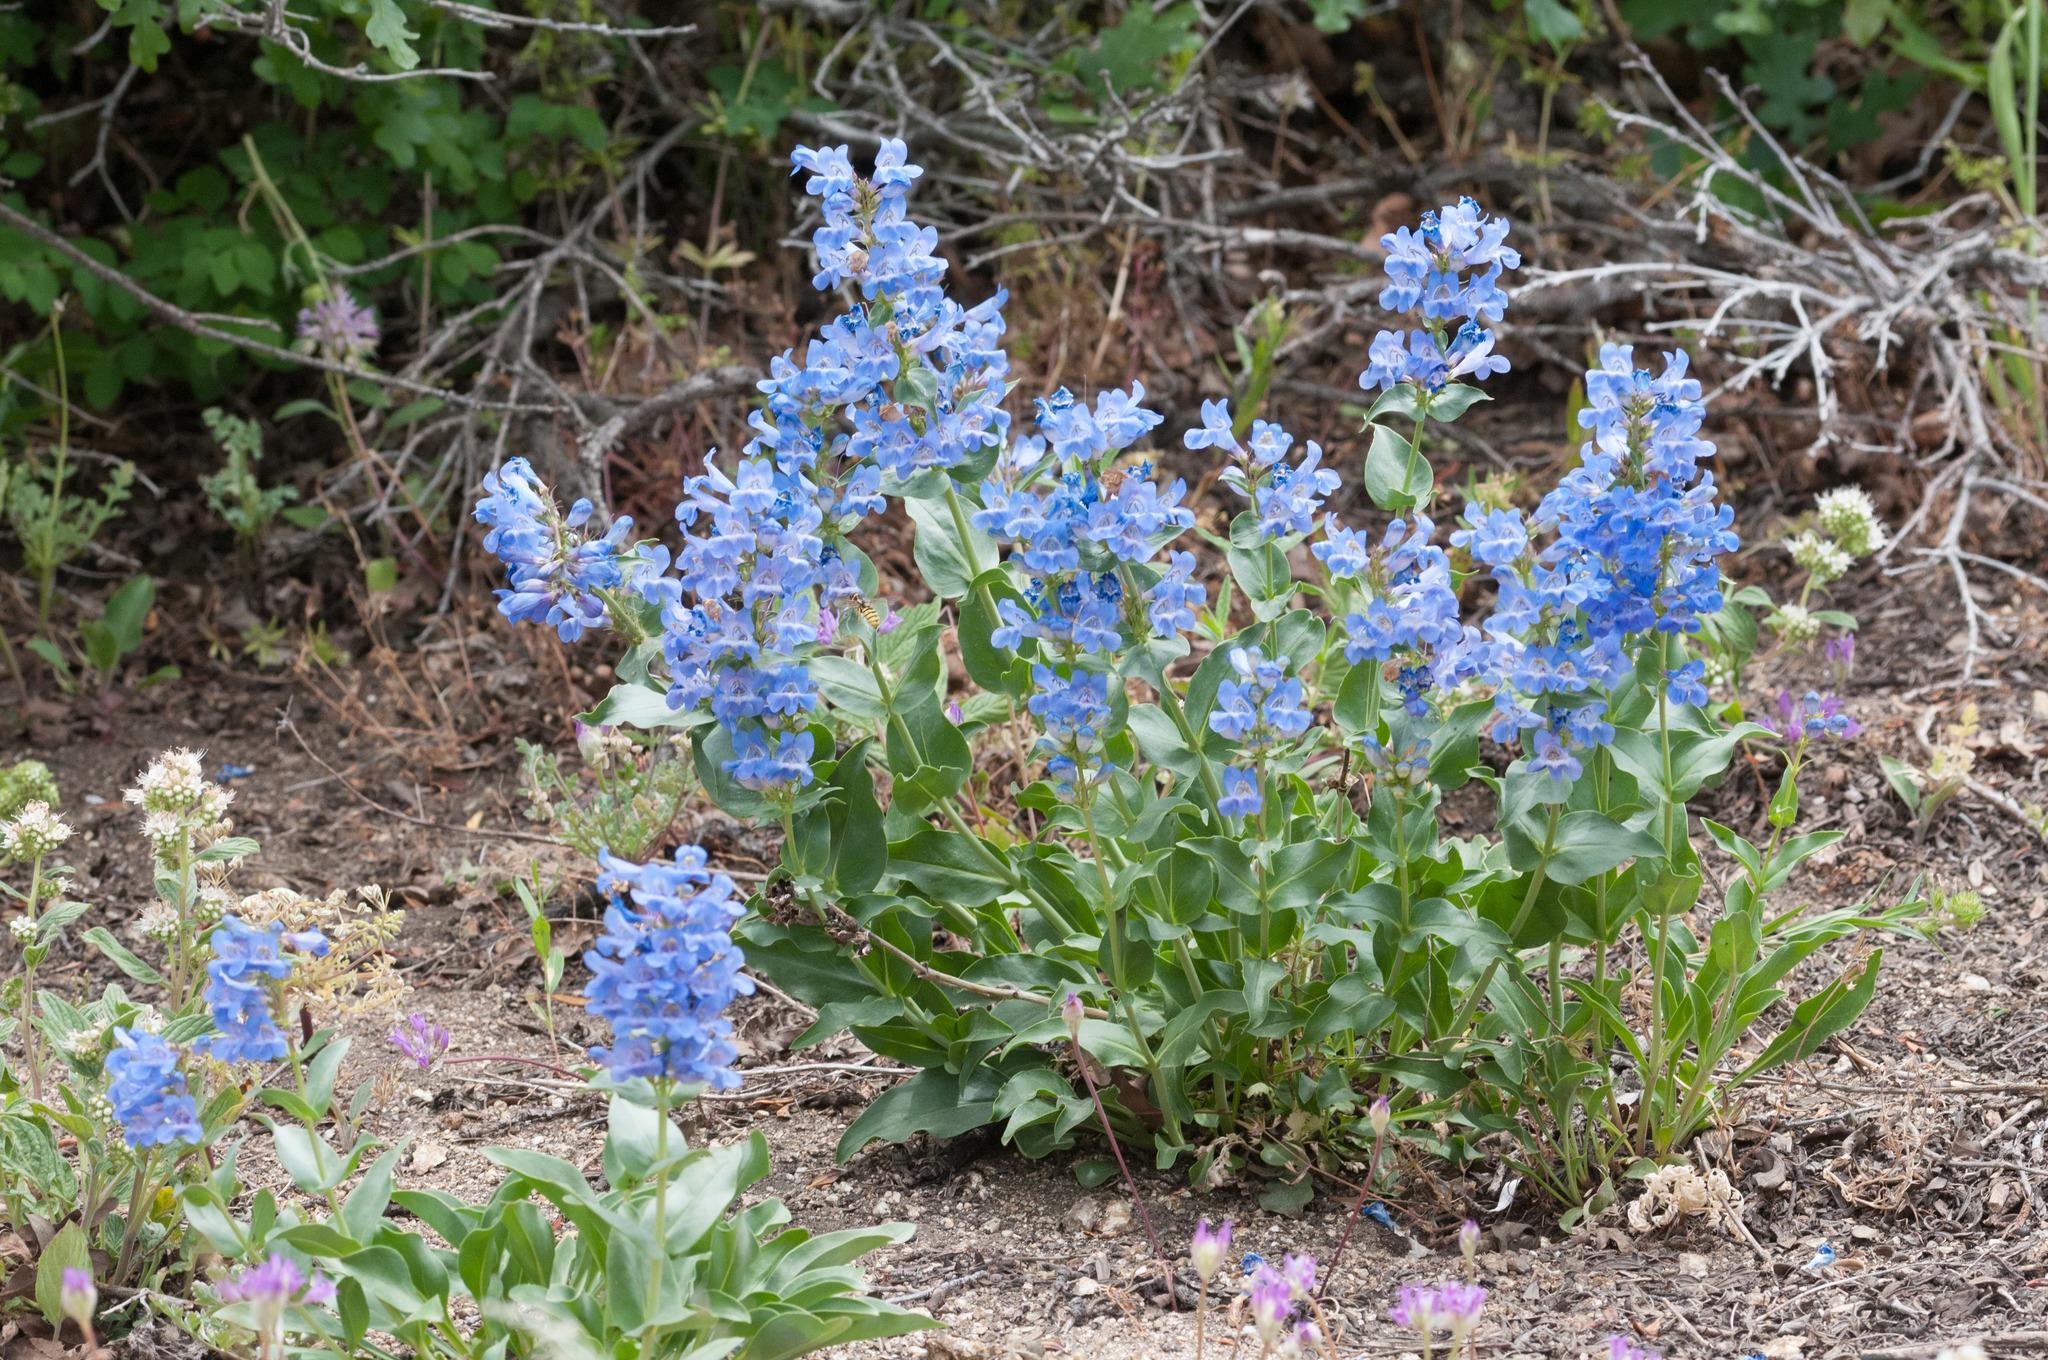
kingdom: Plantae
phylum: Tracheophyta
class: Magnoliopsida
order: Lamiales
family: Plantaginaceae
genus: Penstemon
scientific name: Penstemon cyananthus
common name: Wasatch penstemon
